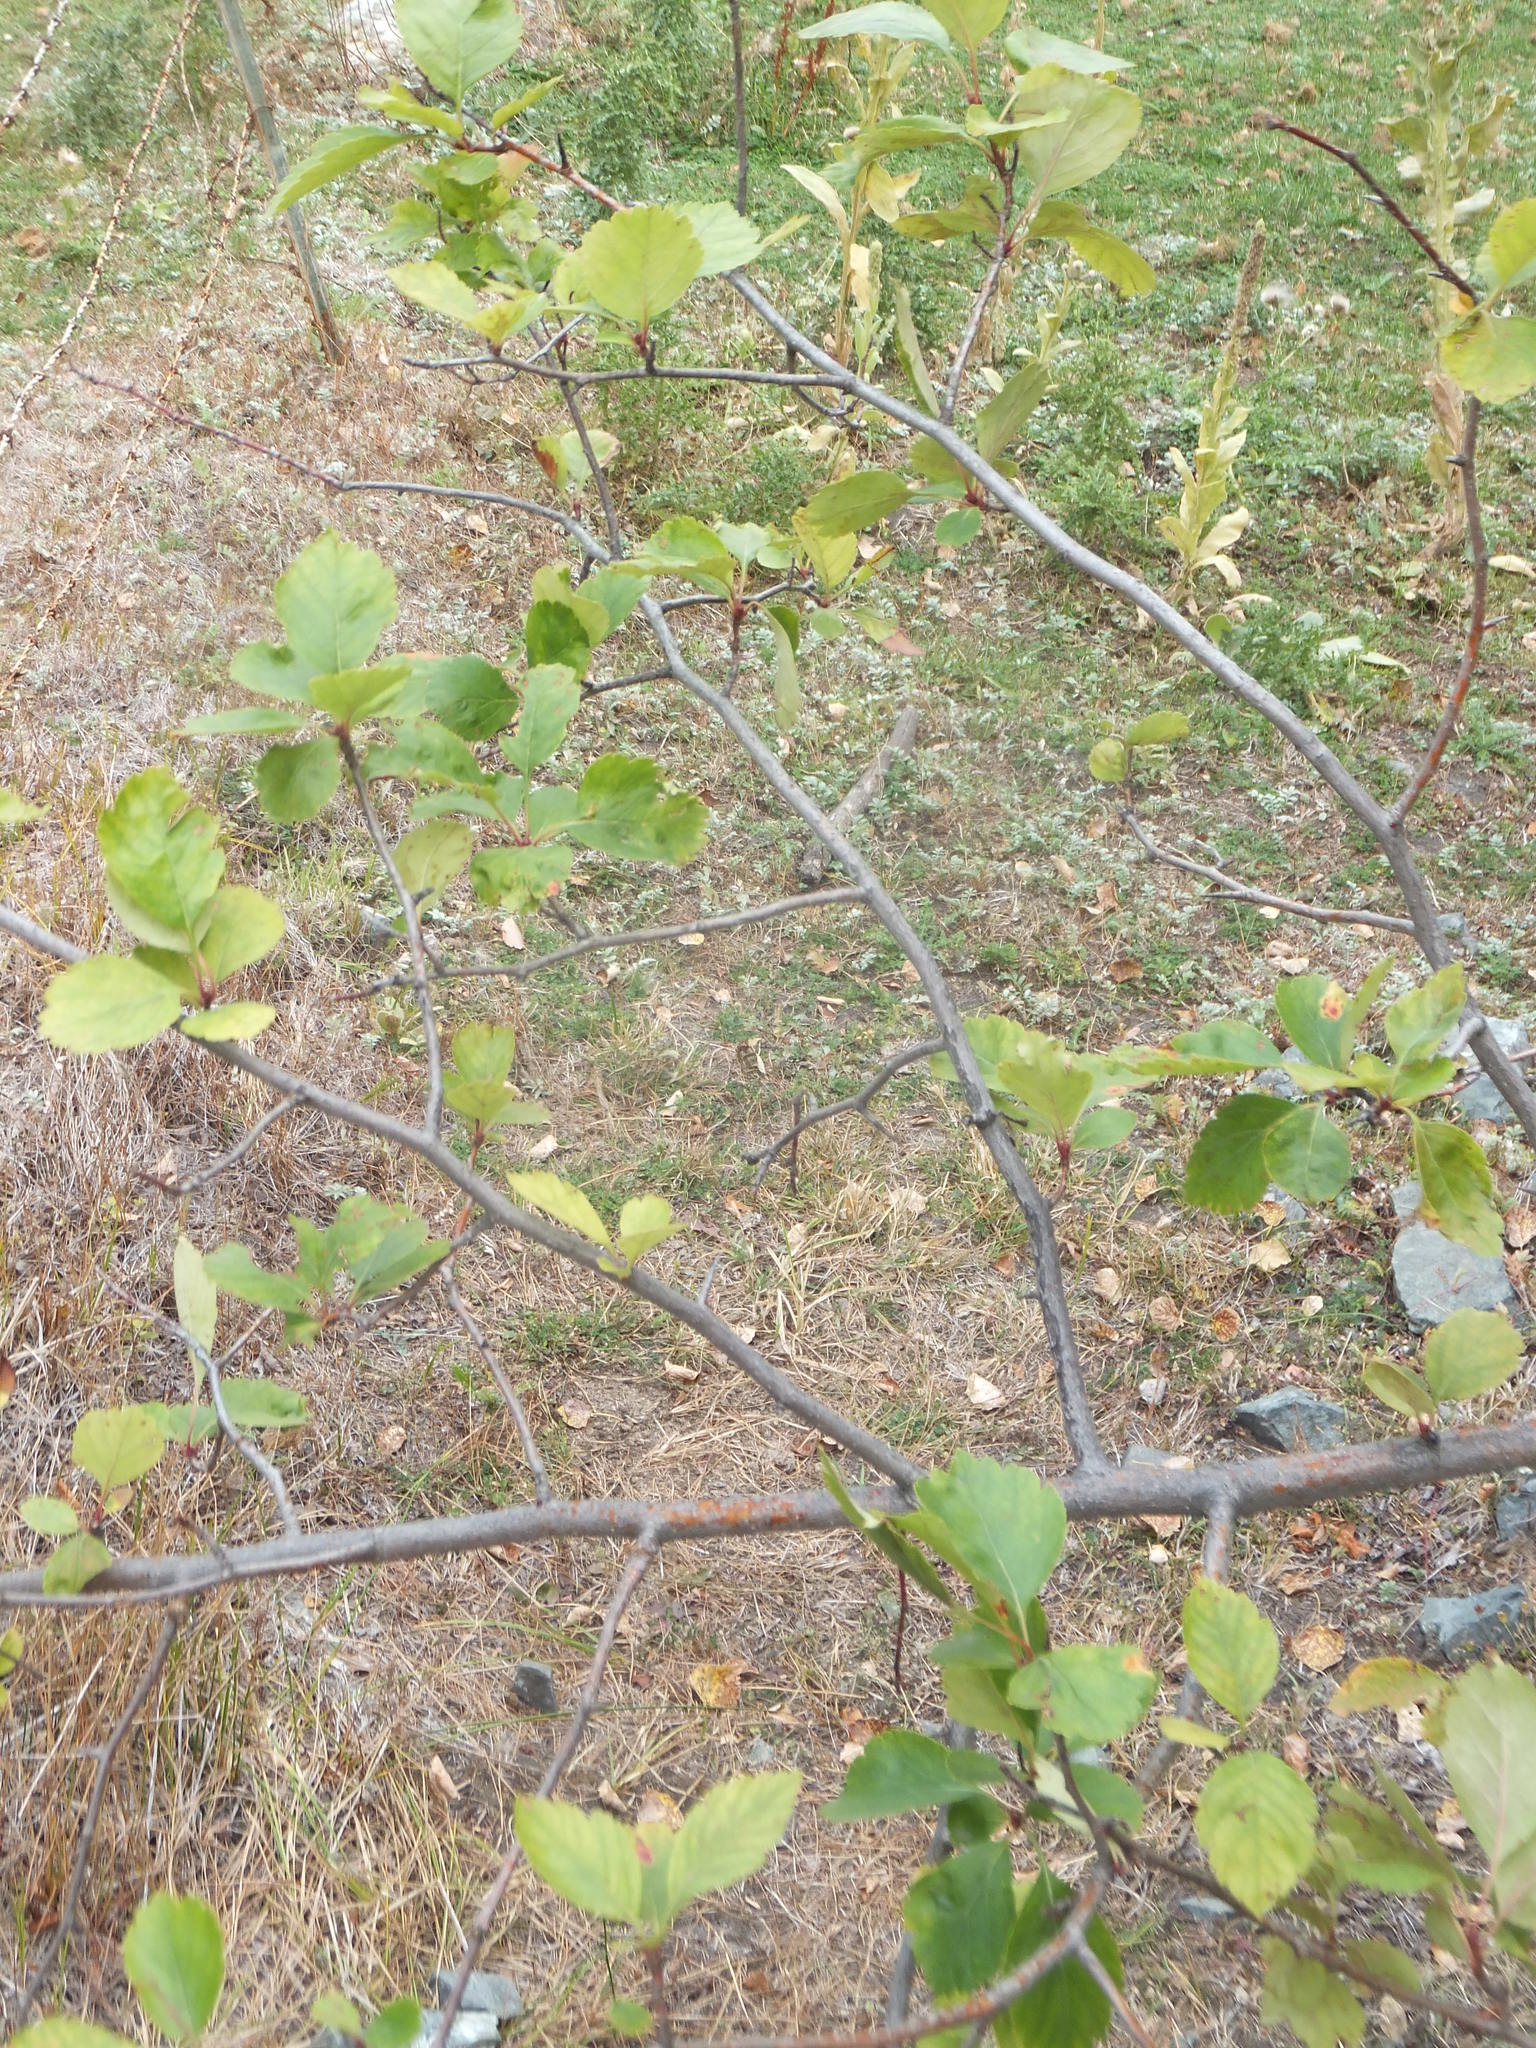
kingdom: Plantae
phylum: Tracheophyta
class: Magnoliopsida
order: Rosales
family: Rosaceae
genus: Crataegus
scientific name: Crataegus douglasii
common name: Black hawthorn
